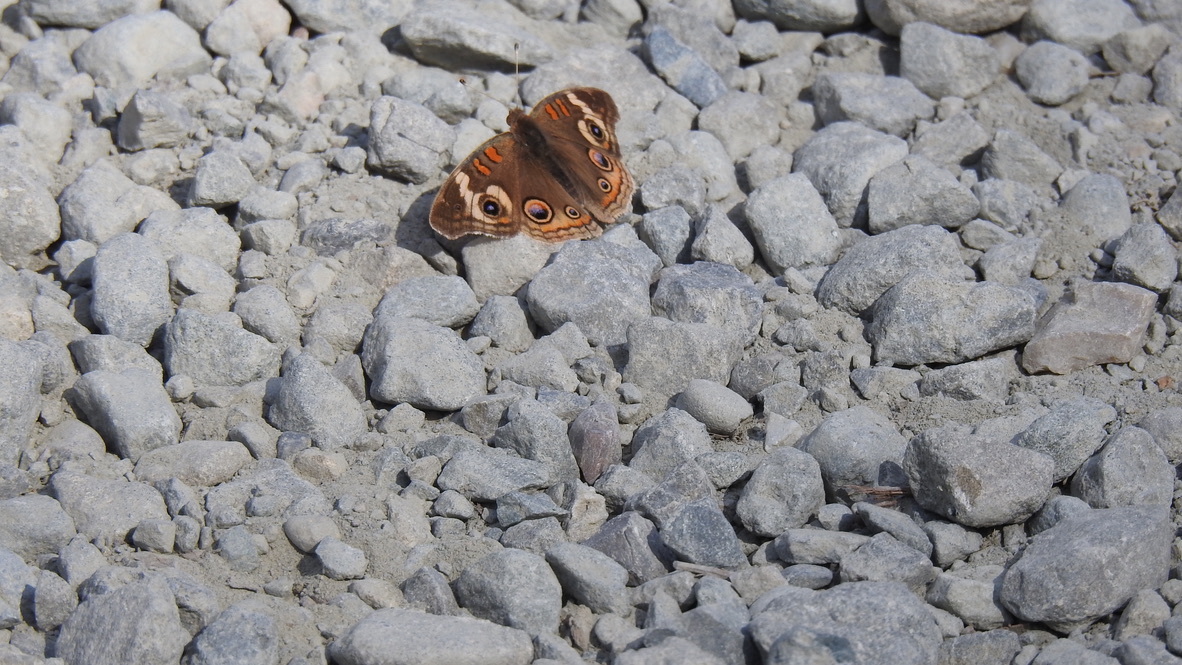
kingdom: Animalia
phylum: Arthropoda
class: Insecta
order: Lepidoptera
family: Nymphalidae
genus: Junonia
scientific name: Junonia grisea
